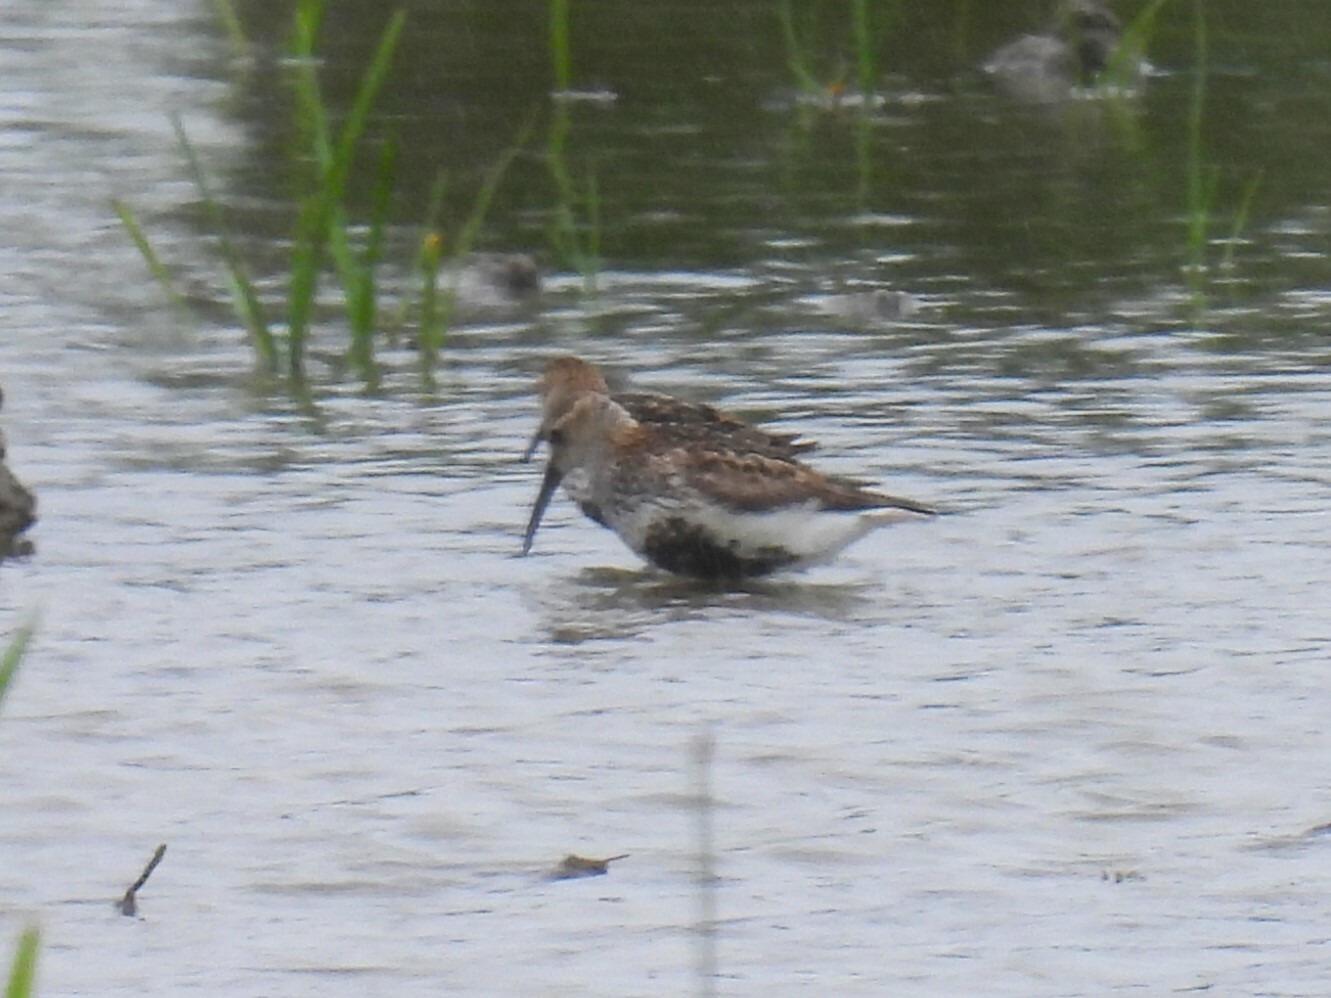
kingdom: Animalia
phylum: Chordata
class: Aves
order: Charadriiformes
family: Scolopacidae
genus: Calidris
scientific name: Calidris alpina
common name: Dunlin
